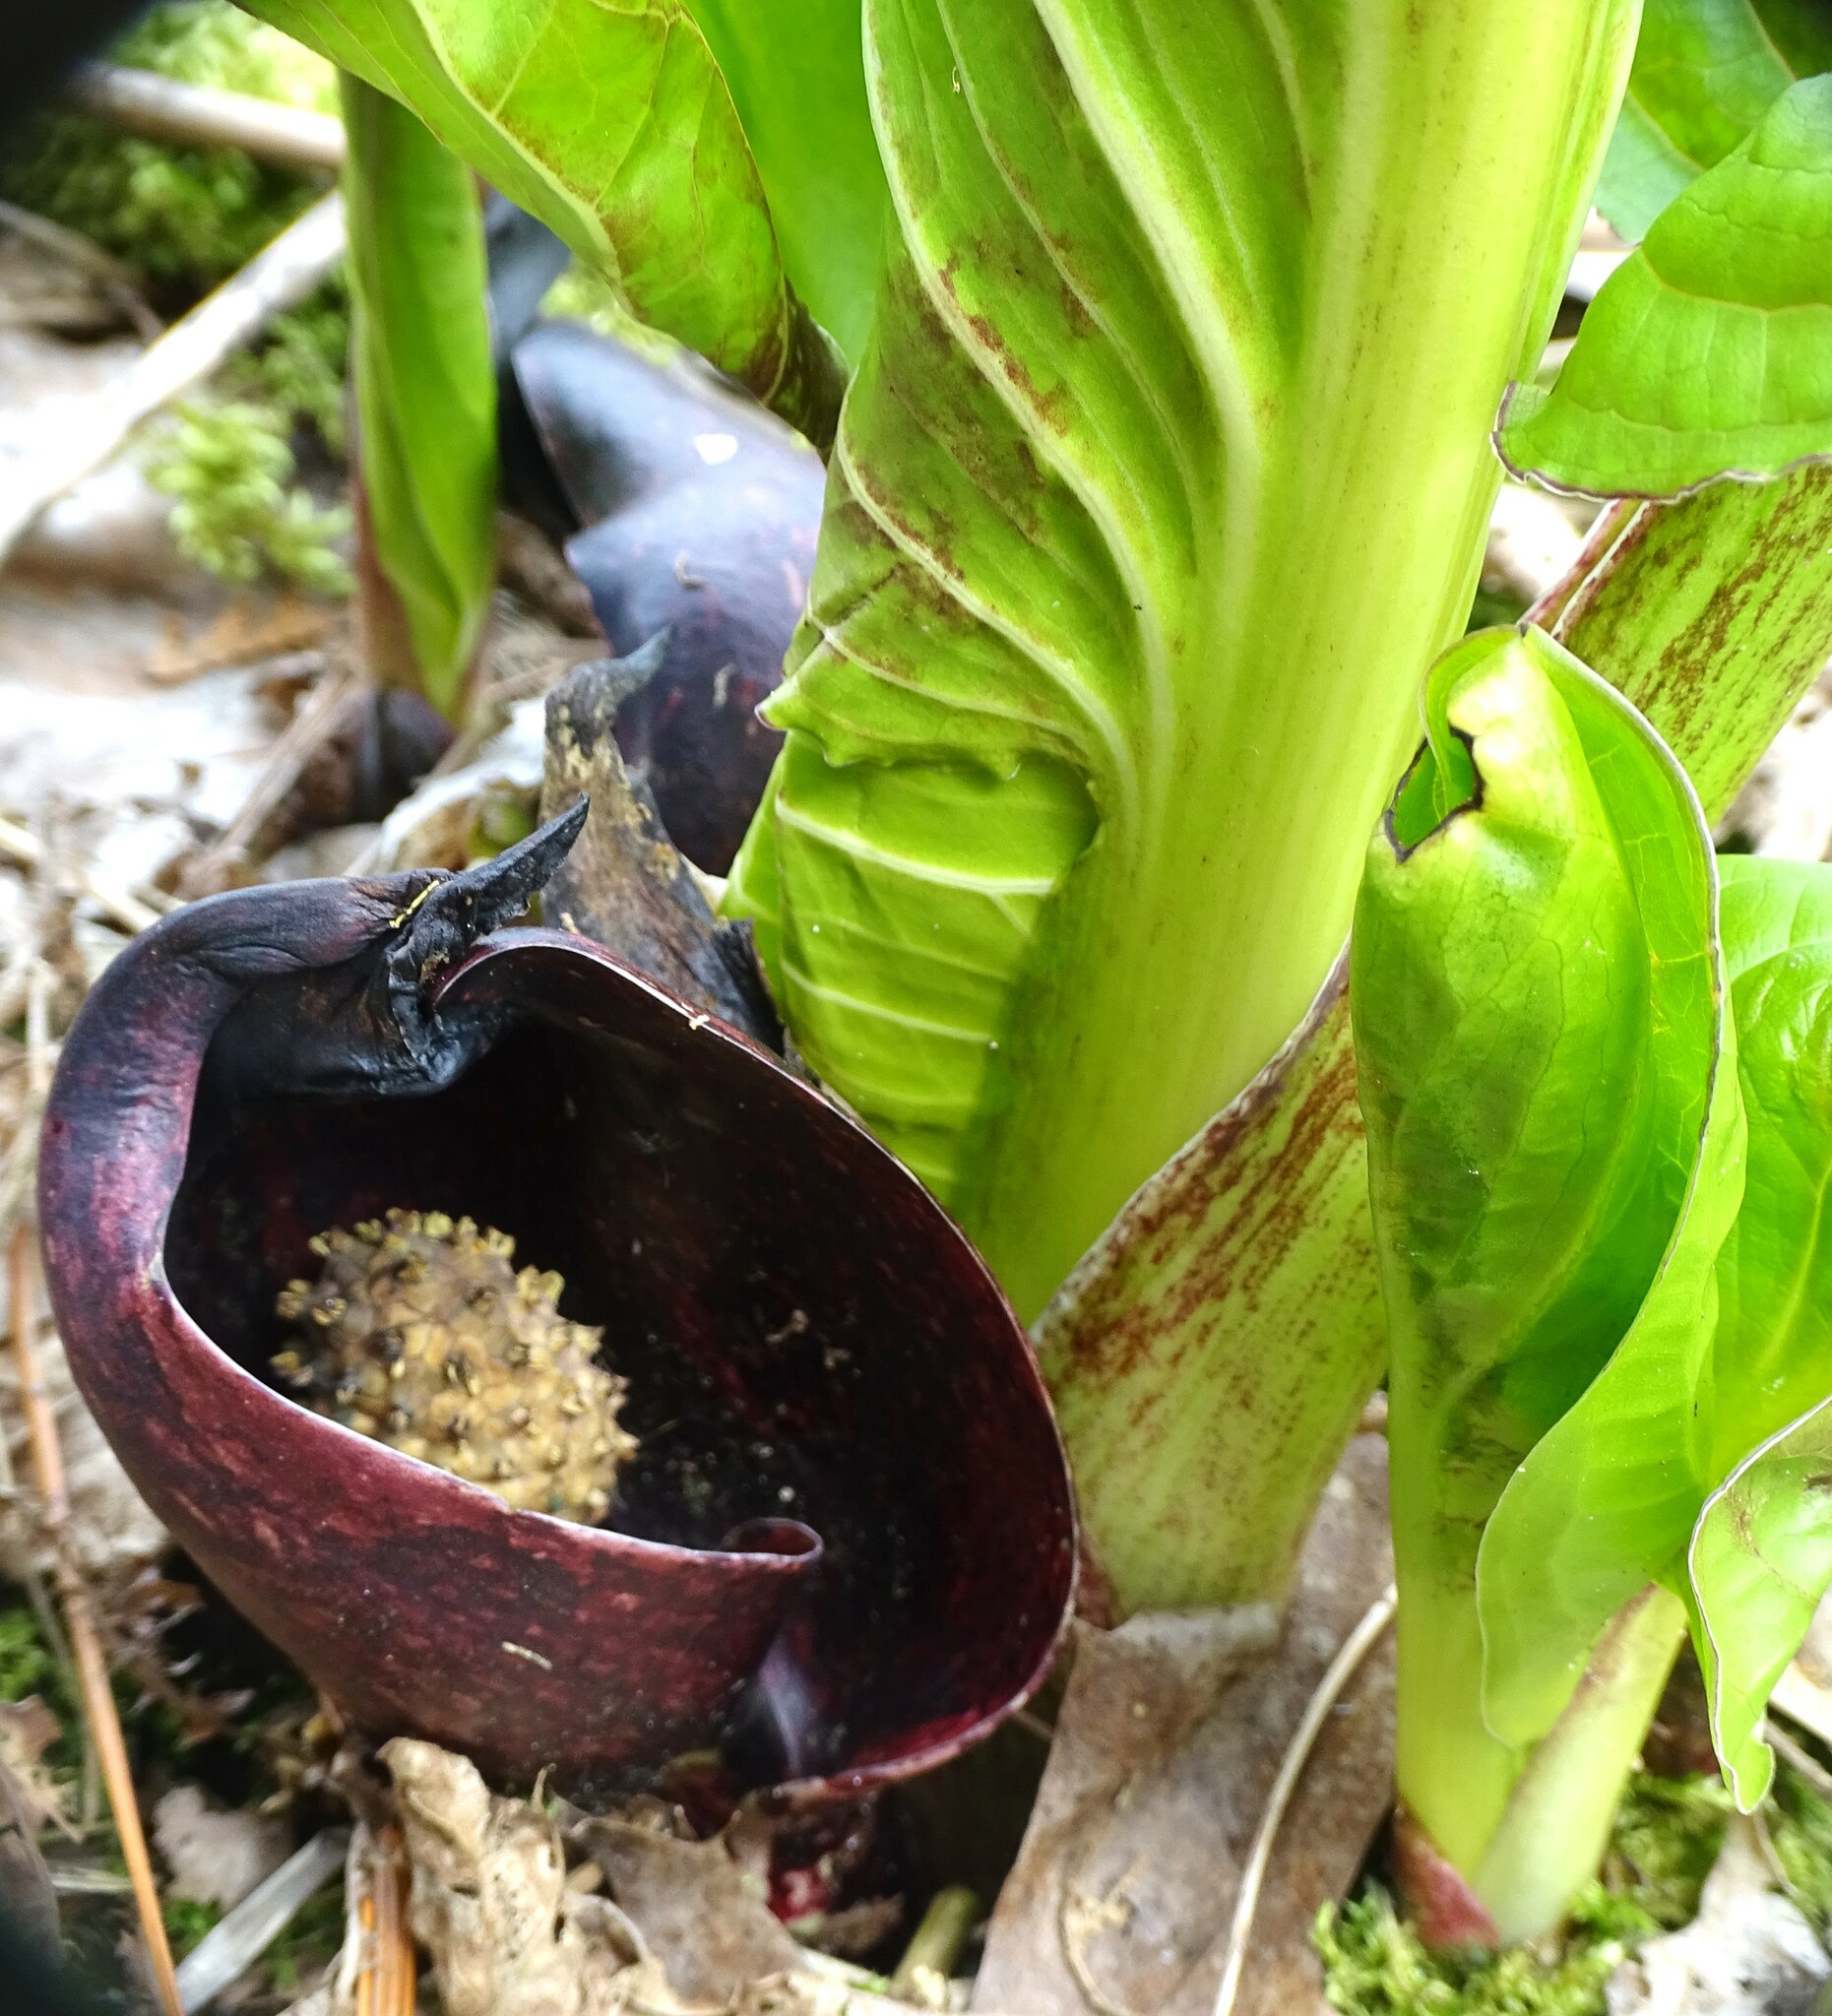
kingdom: Plantae
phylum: Tracheophyta
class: Liliopsida
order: Alismatales
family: Araceae
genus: Symplocarpus
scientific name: Symplocarpus foetidus
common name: Eastern skunk cabbage
